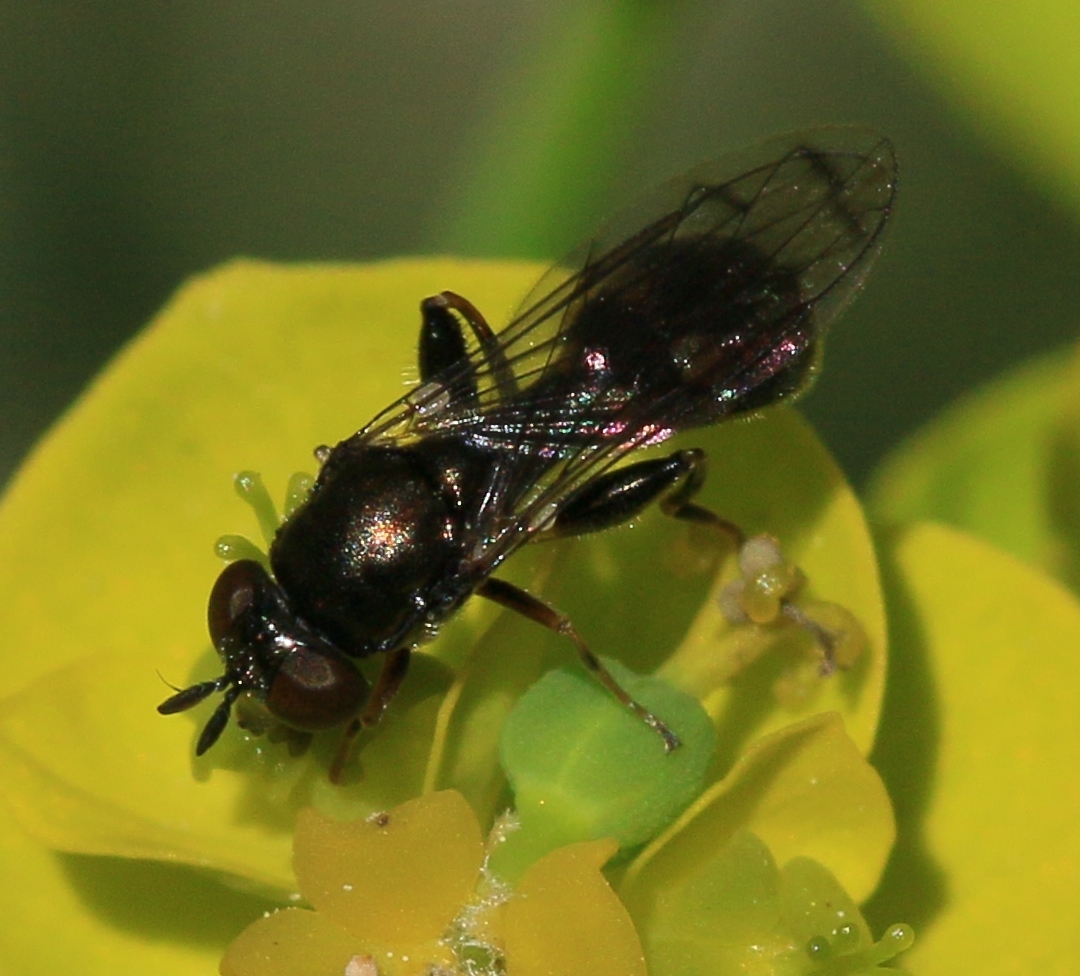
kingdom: Animalia
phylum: Arthropoda
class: Insecta
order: Diptera
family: Syrphidae
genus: Neoascia
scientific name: Neoascia
